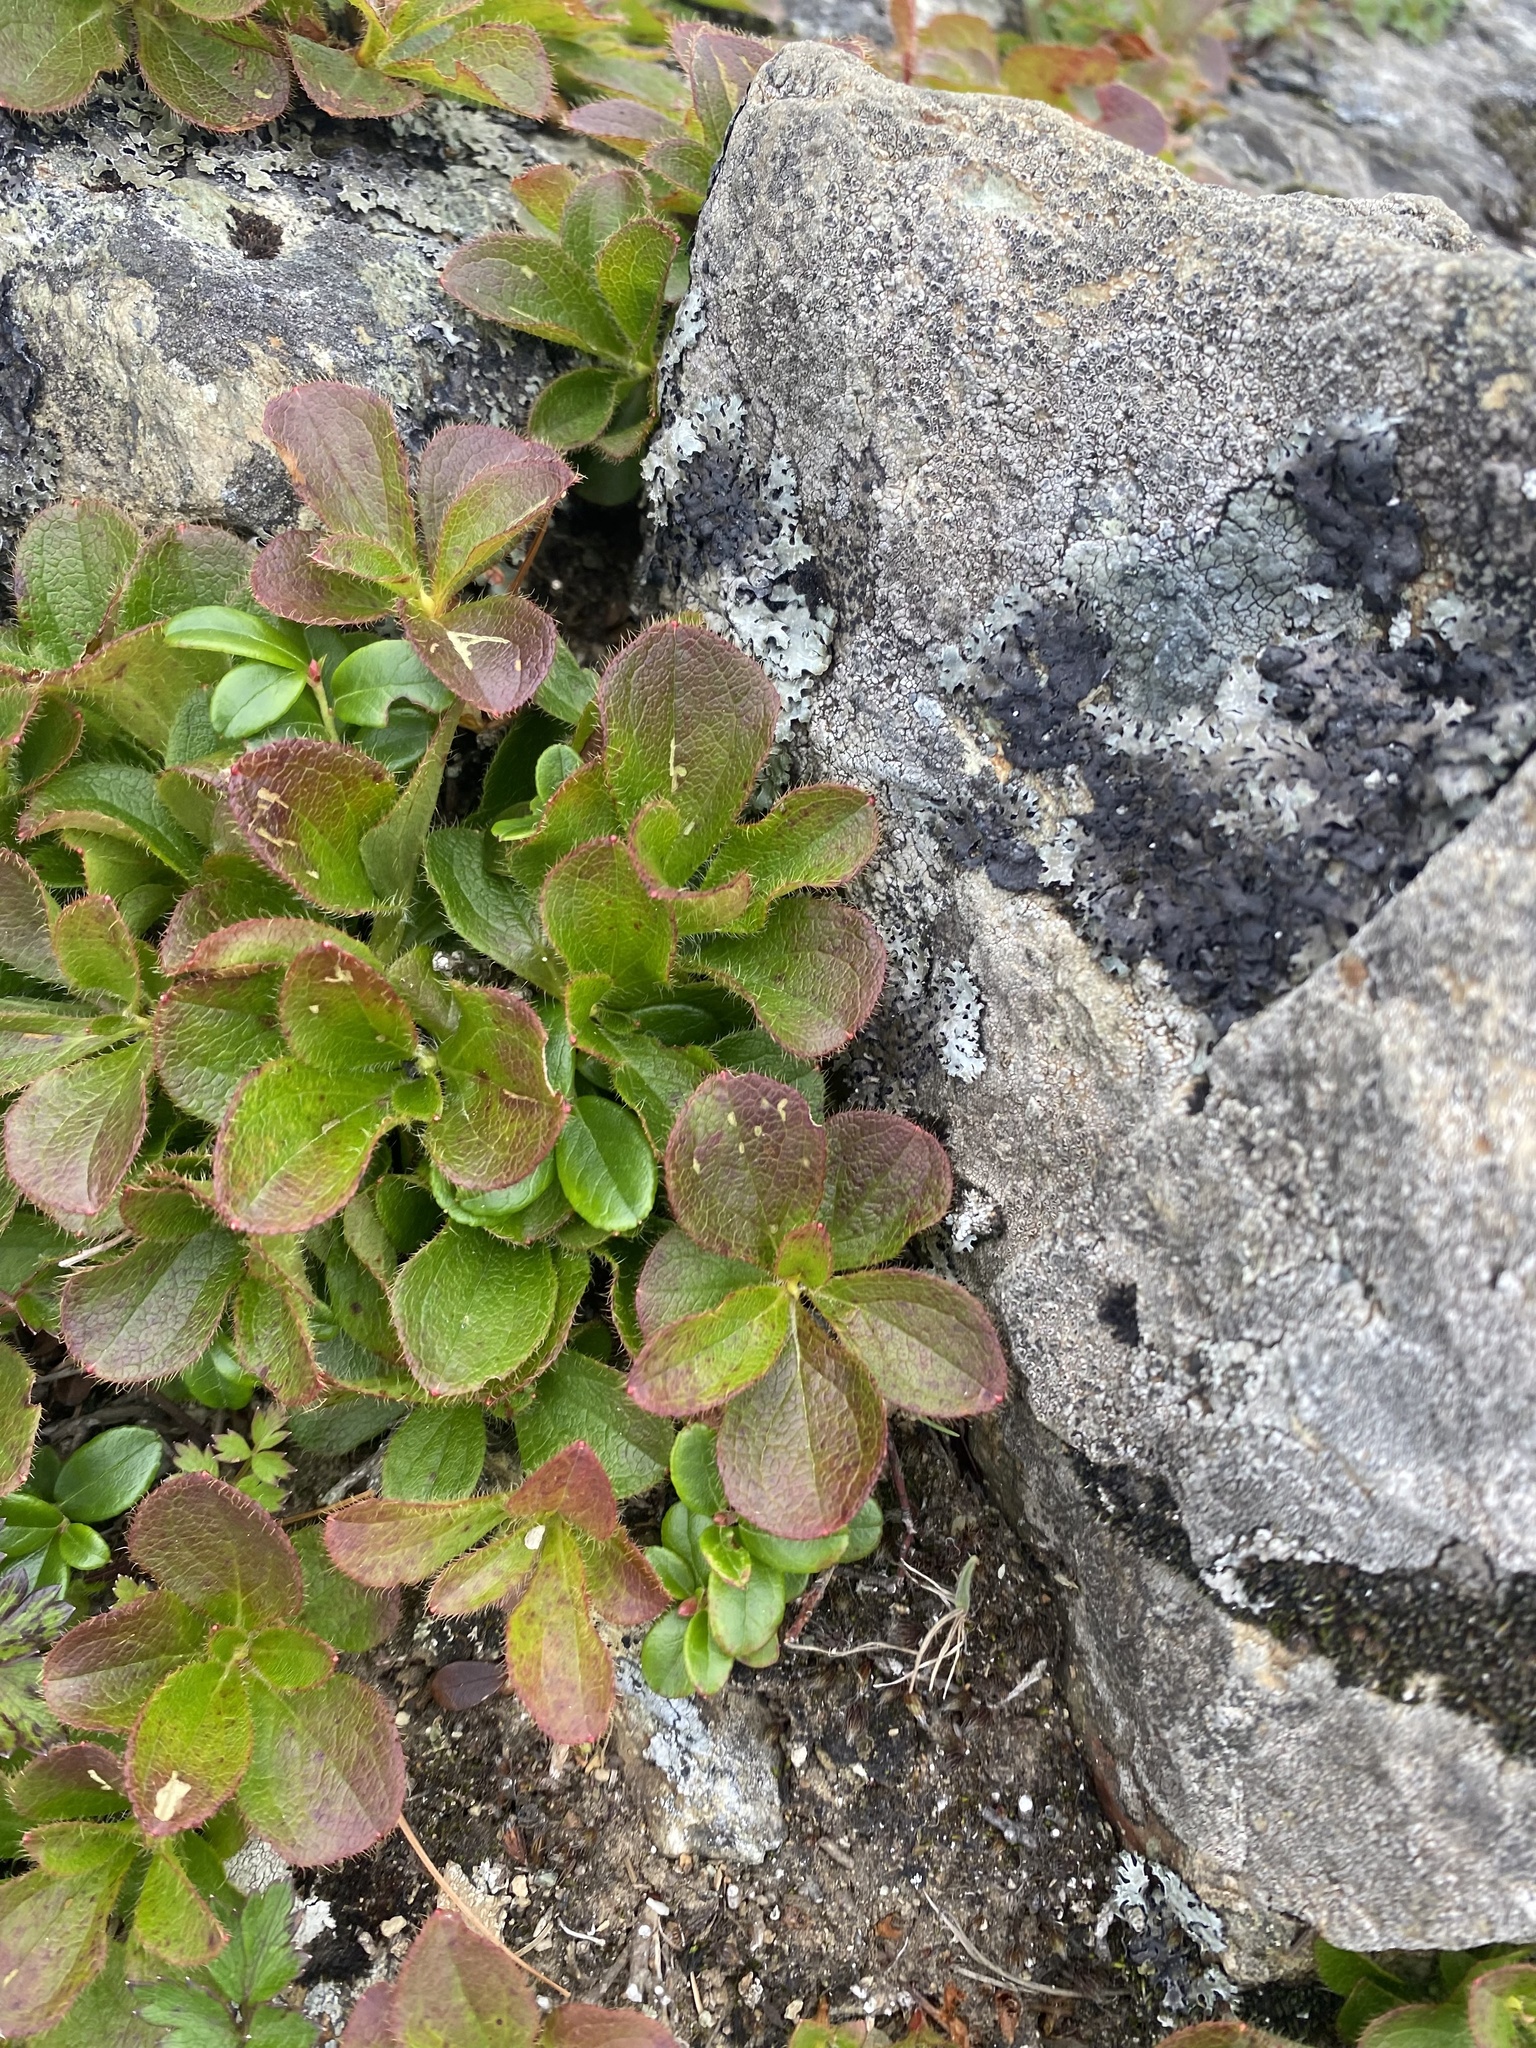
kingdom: Plantae
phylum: Tracheophyta
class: Magnoliopsida
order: Ericales
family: Ericaceae
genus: Rhododendron
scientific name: Rhododendron camtschaticum
